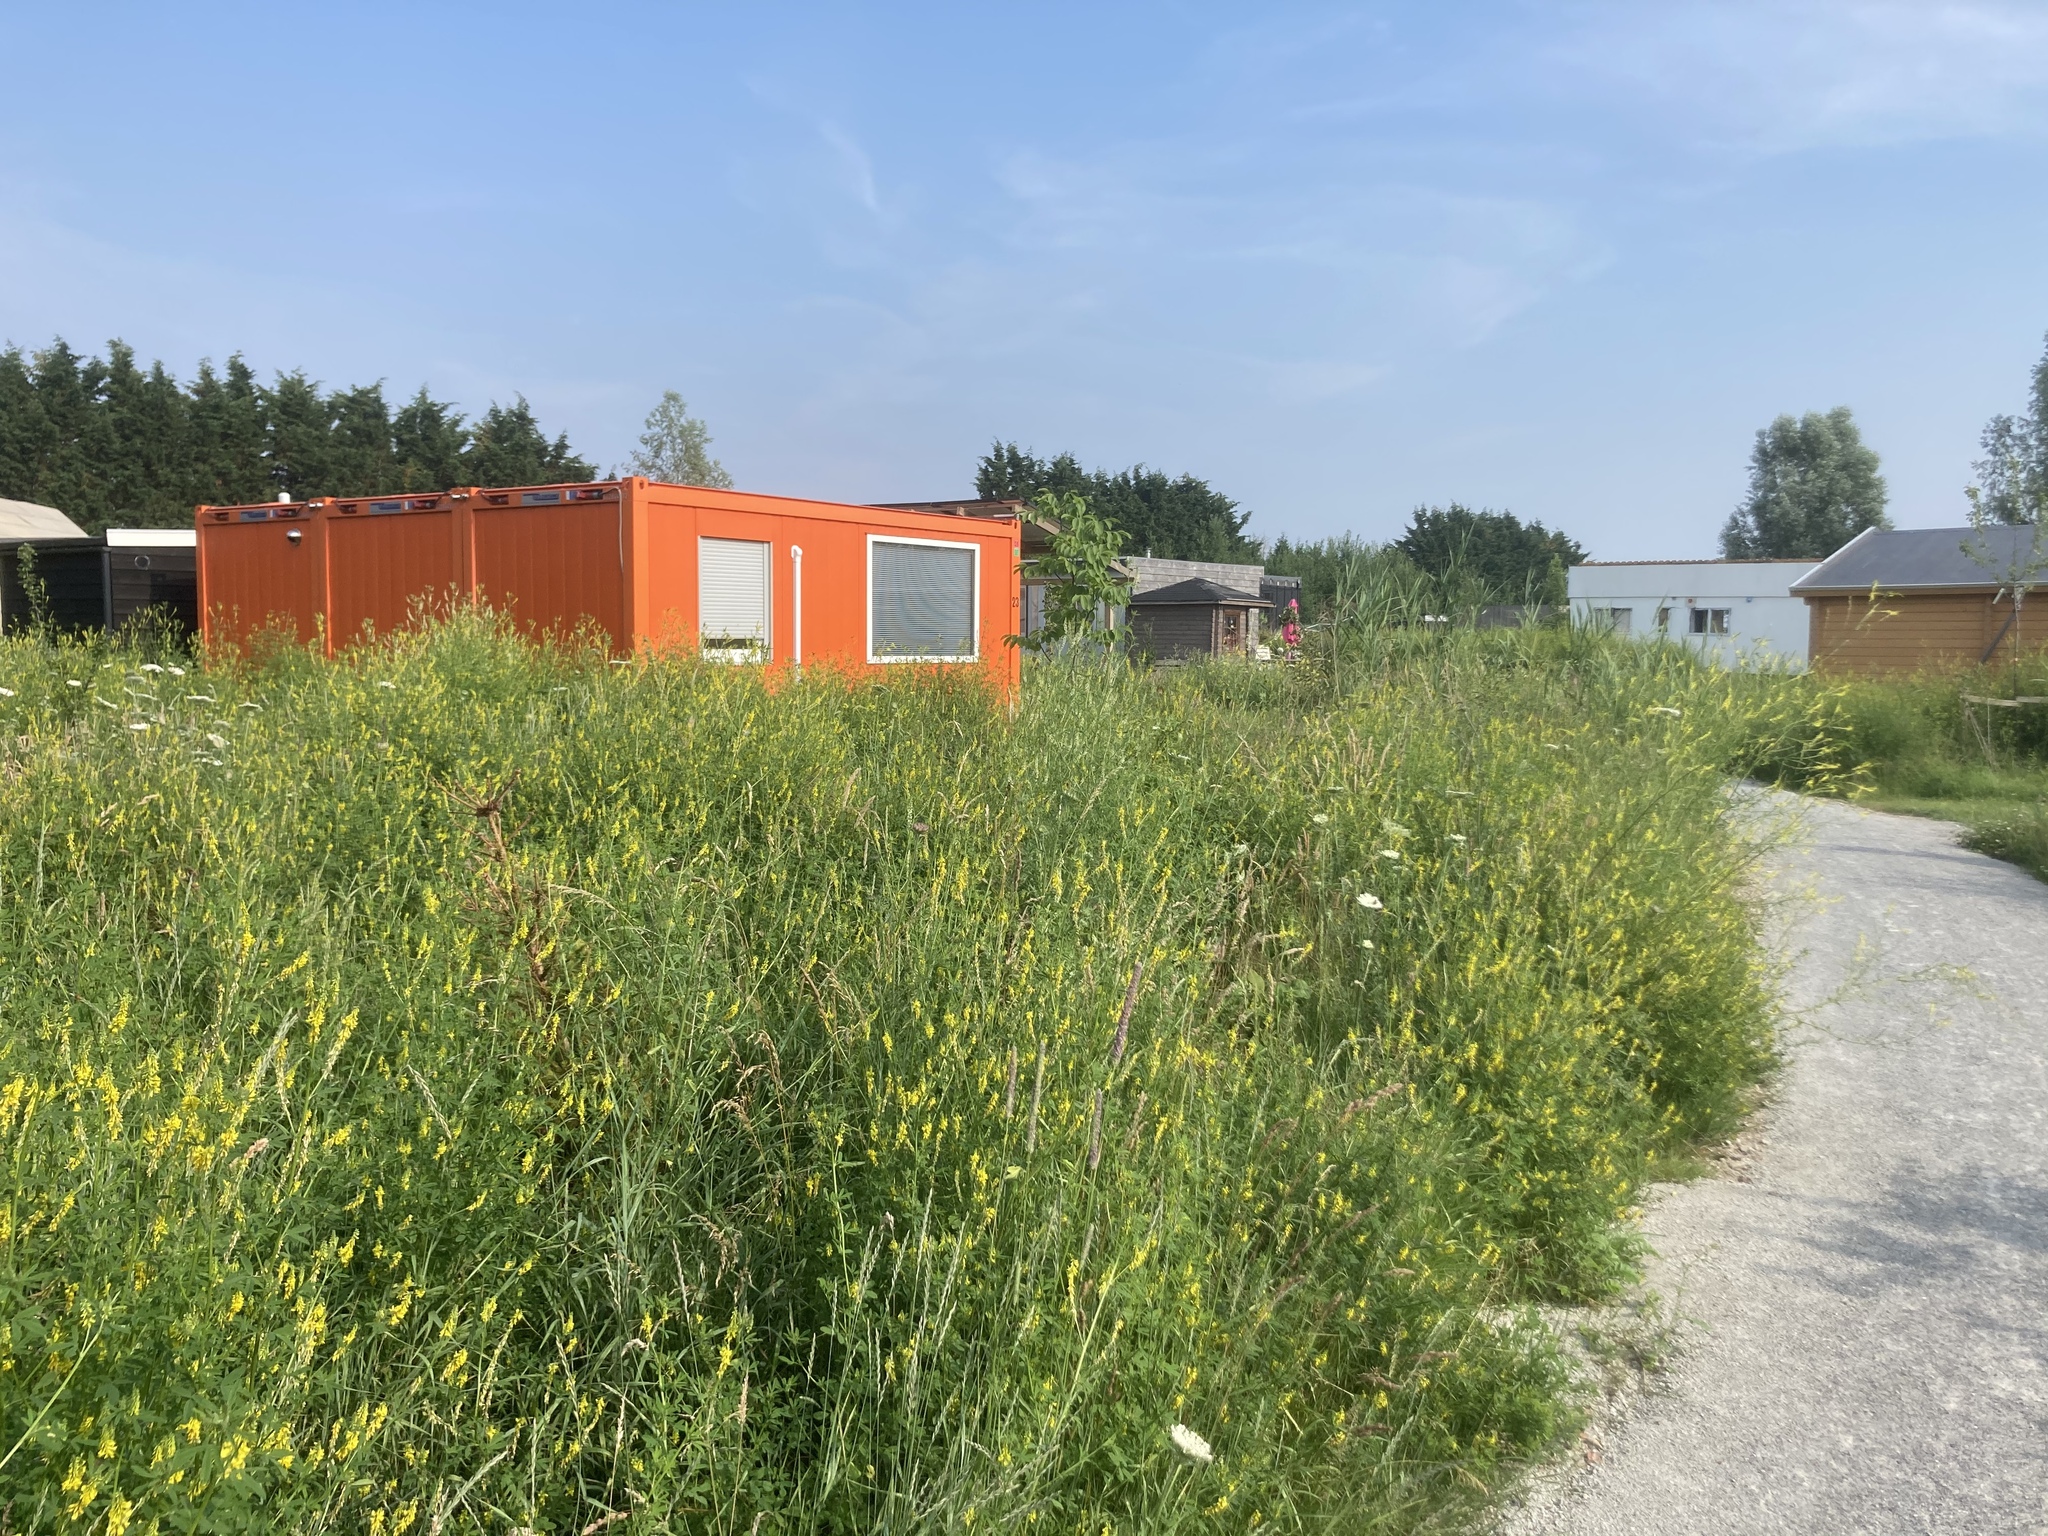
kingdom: Plantae
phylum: Tracheophyta
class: Magnoliopsida
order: Fabales
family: Fabaceae
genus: Melilotus
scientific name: Melilotus officinalis
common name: Sweetclover
